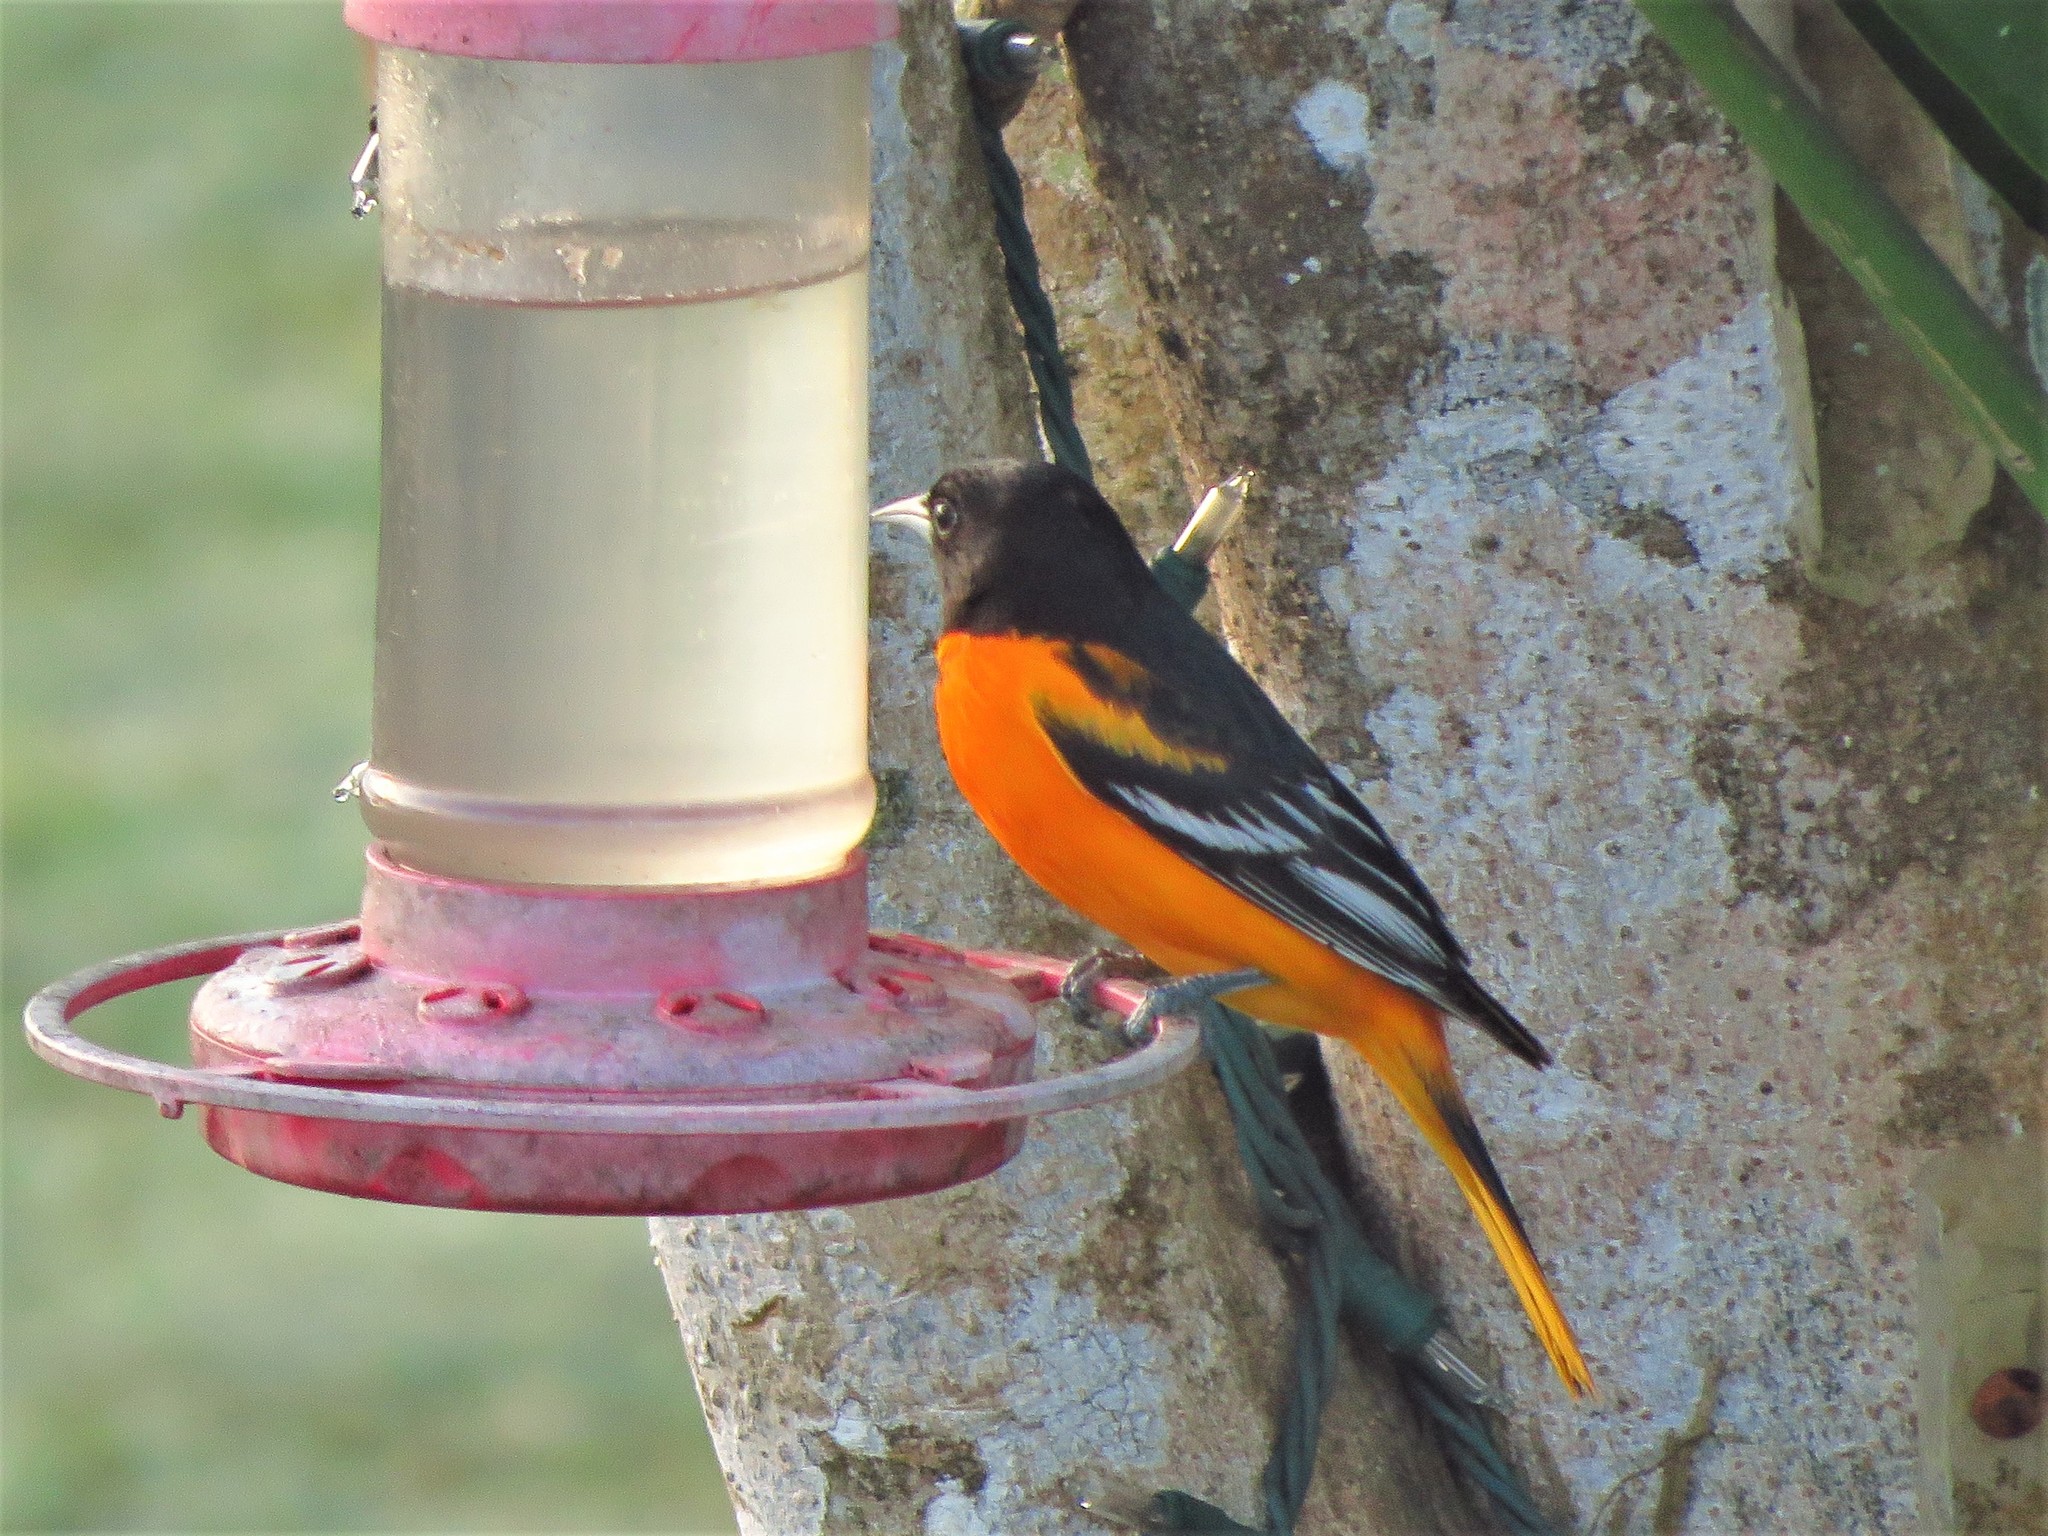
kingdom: Animalia
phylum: Chordata
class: Aves
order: Passeriformes
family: Icteridae
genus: Icterus
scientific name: Icterus galbula
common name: Baltimore oriole
